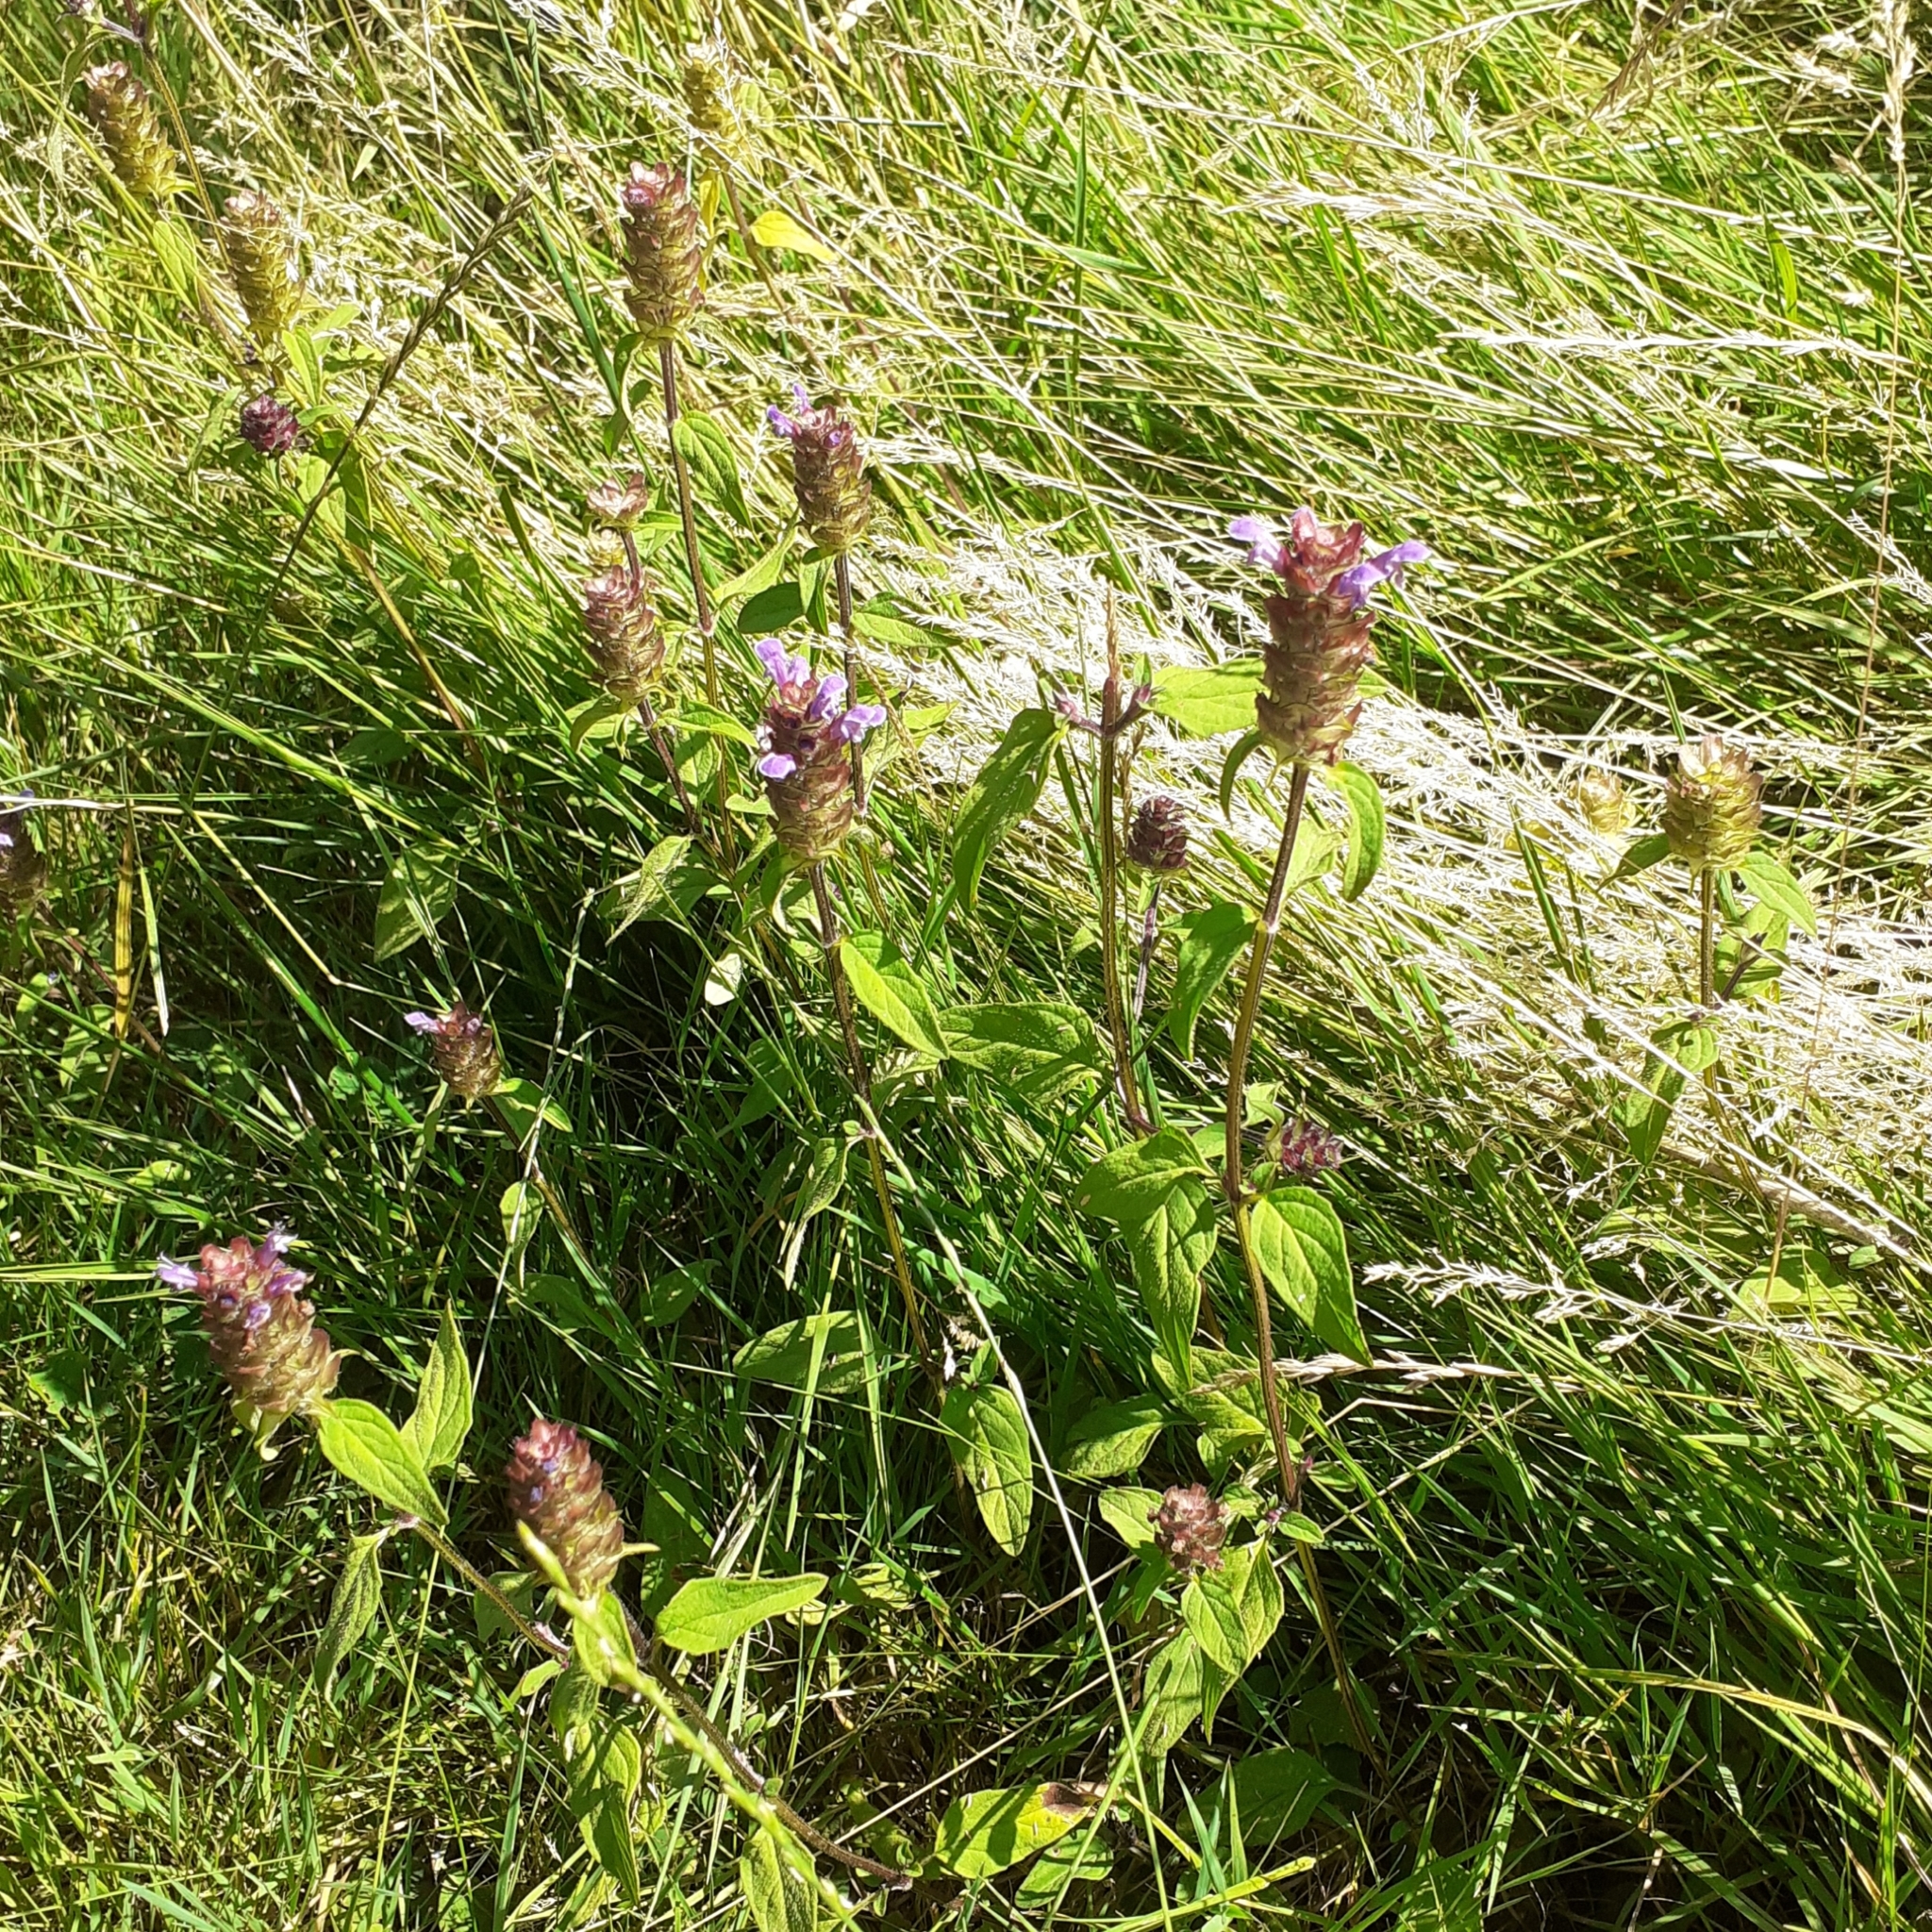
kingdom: Plantae
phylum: Tracheophyta
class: Magnoliopsida
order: Lamiales
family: Lamiaceae
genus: Prunella
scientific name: Prunella vulgaris
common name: Heal-all
